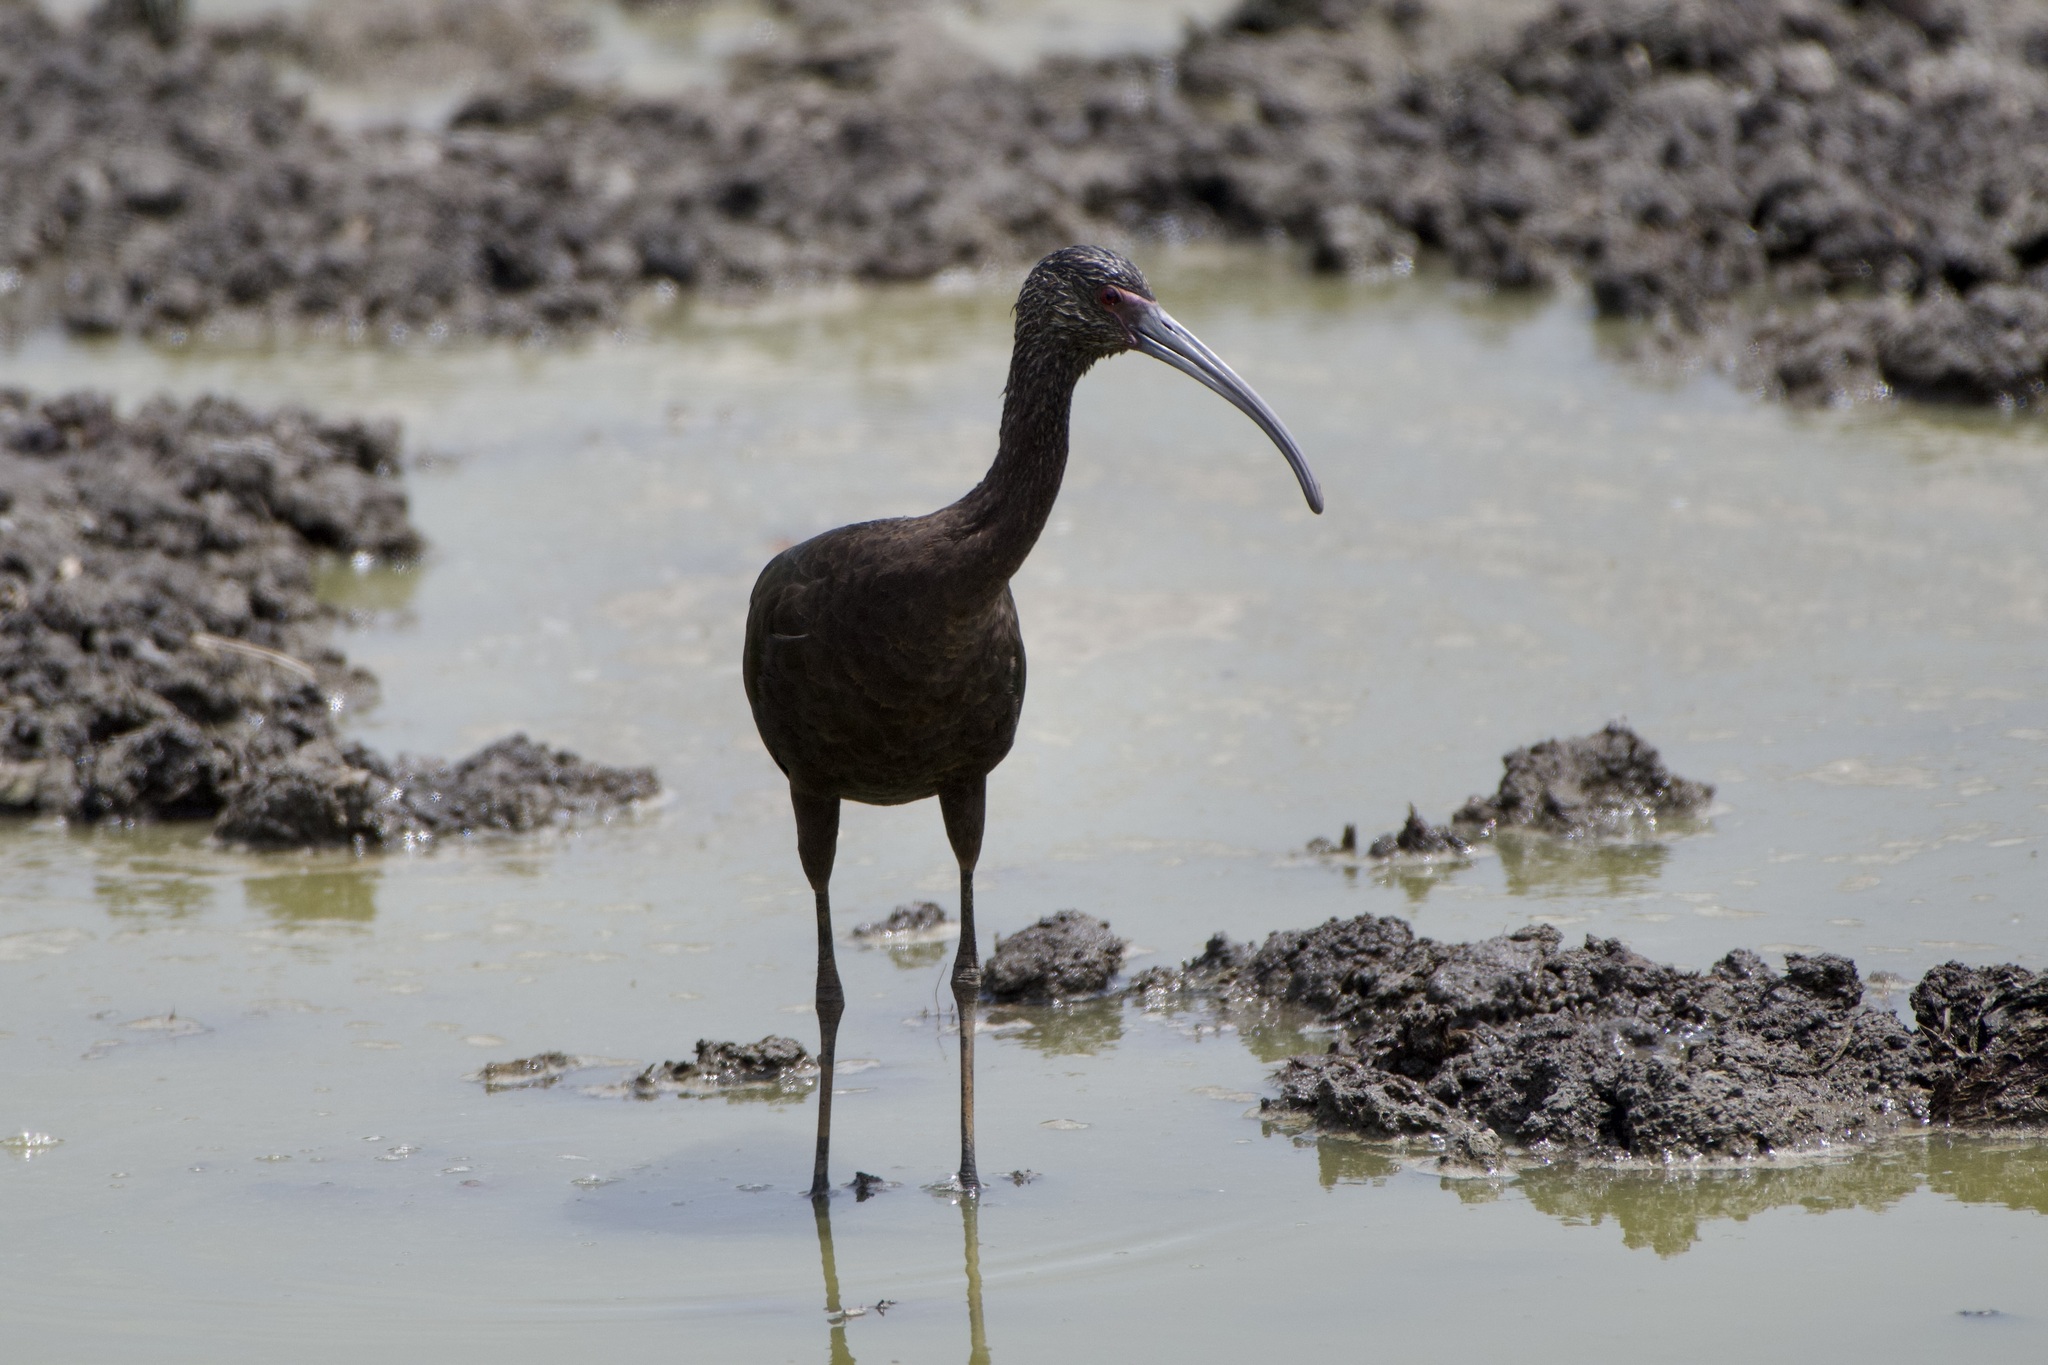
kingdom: Animalia
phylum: Chordata
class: Aves
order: Pelecaniformes
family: Threskiornithidae
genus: Plegadis
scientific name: Plegadis chihi
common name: White-faced ibis
